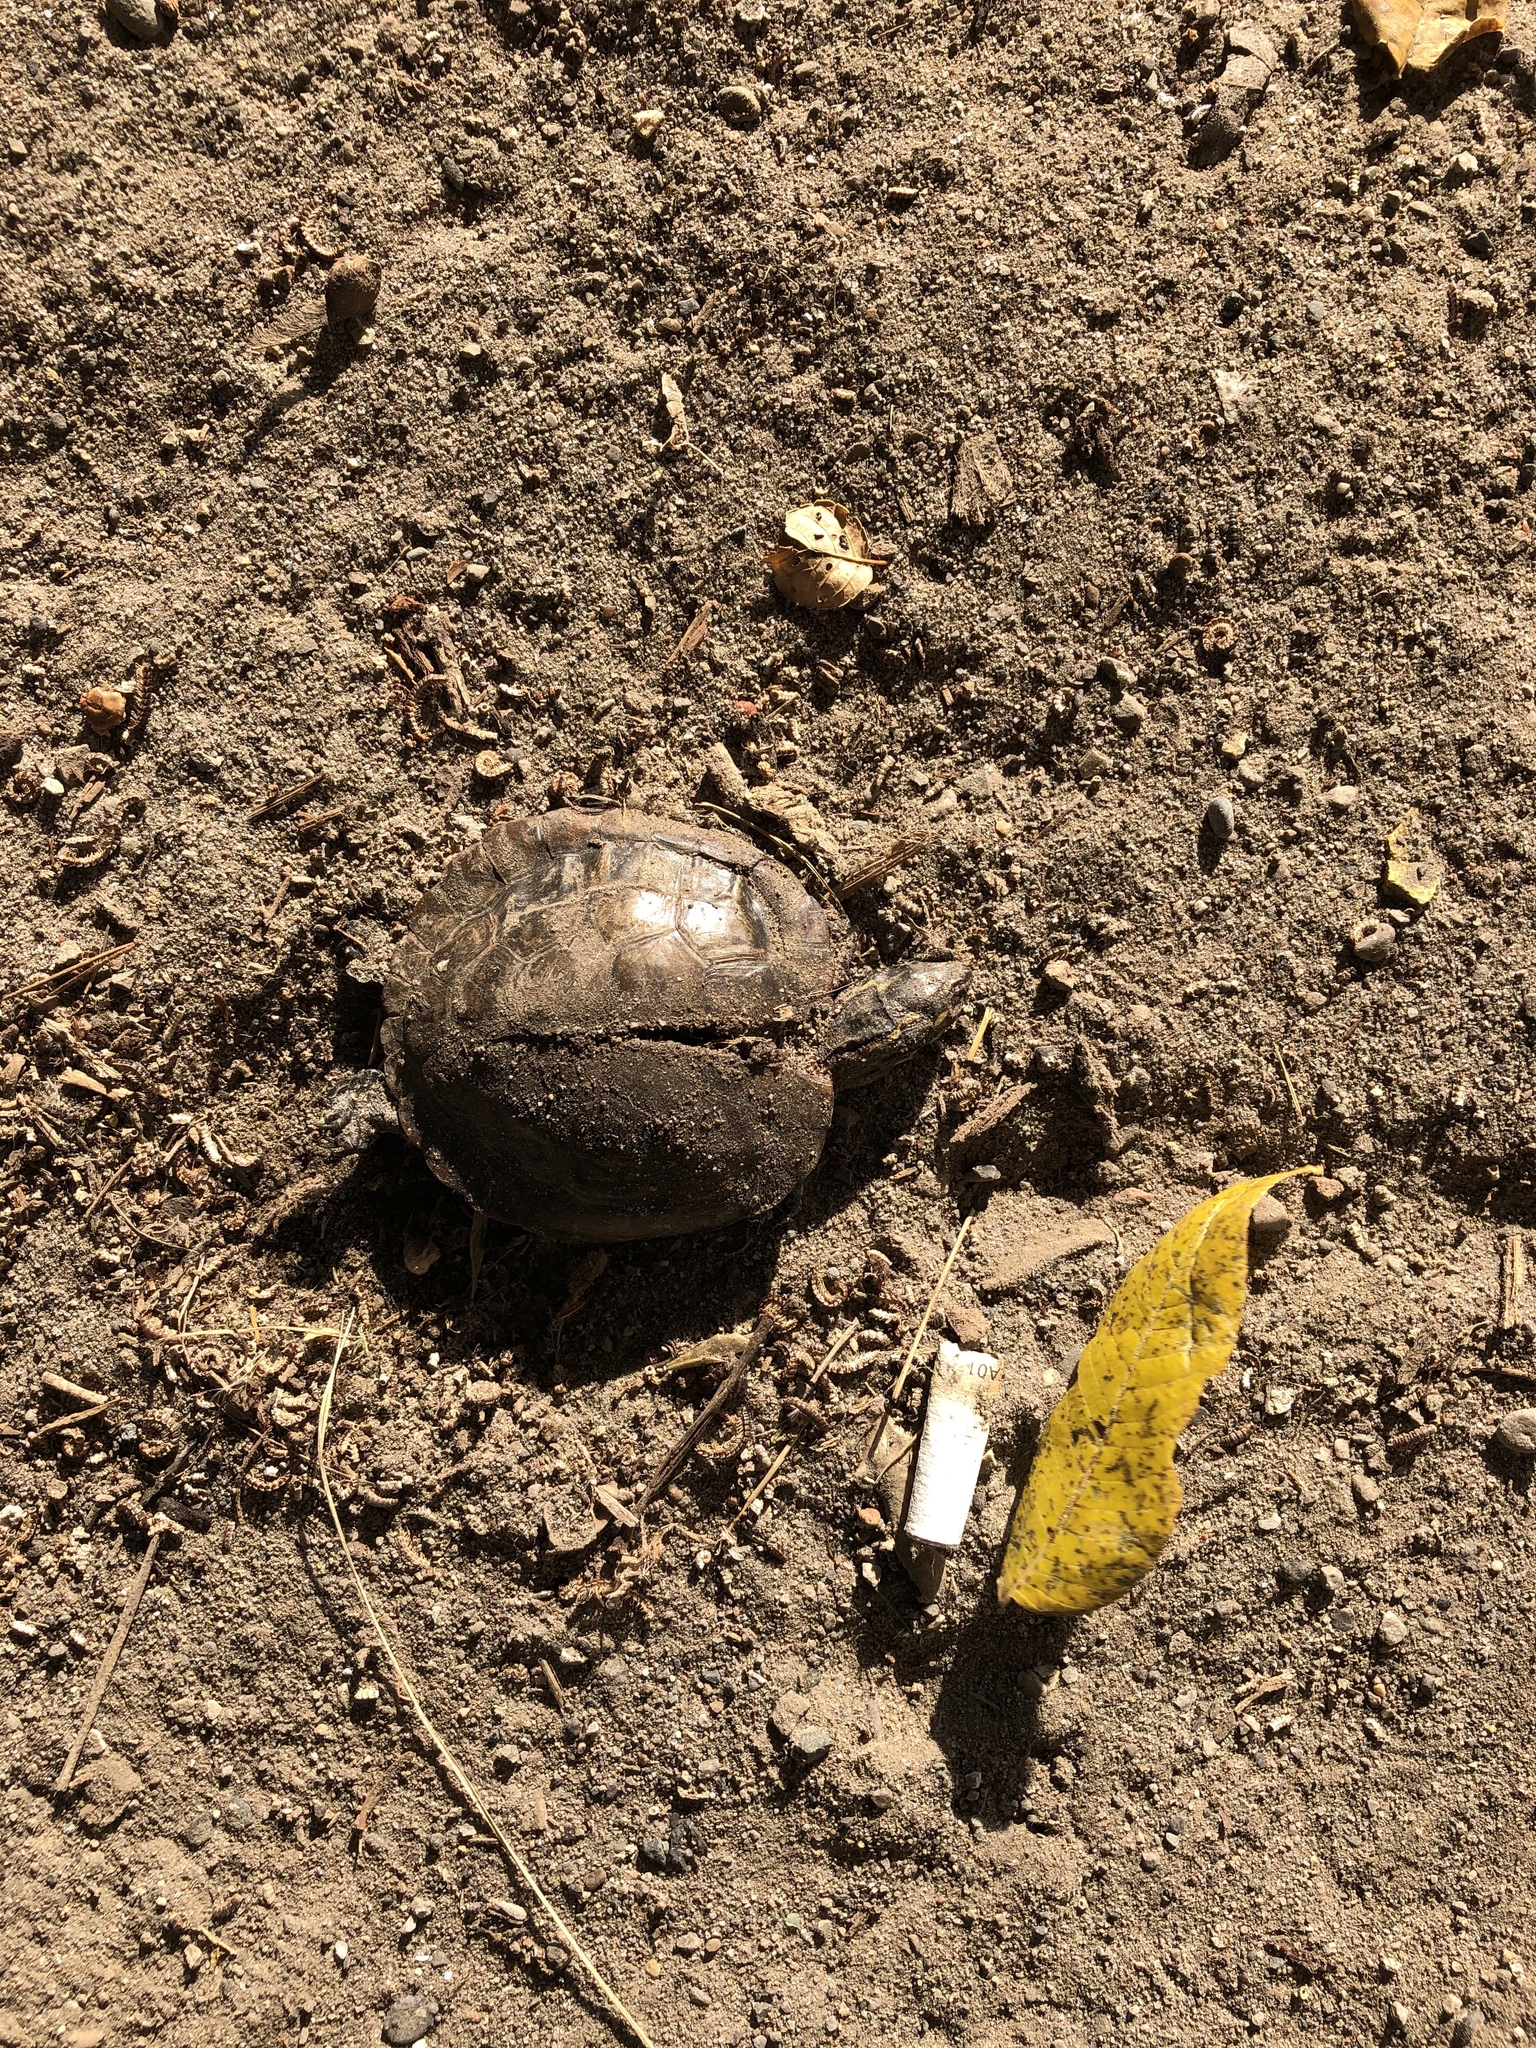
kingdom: Animalia
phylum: Chordata
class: Testudines
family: Emydidae
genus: Chrysemys
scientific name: Chrysemys picta
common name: Painted turtle
